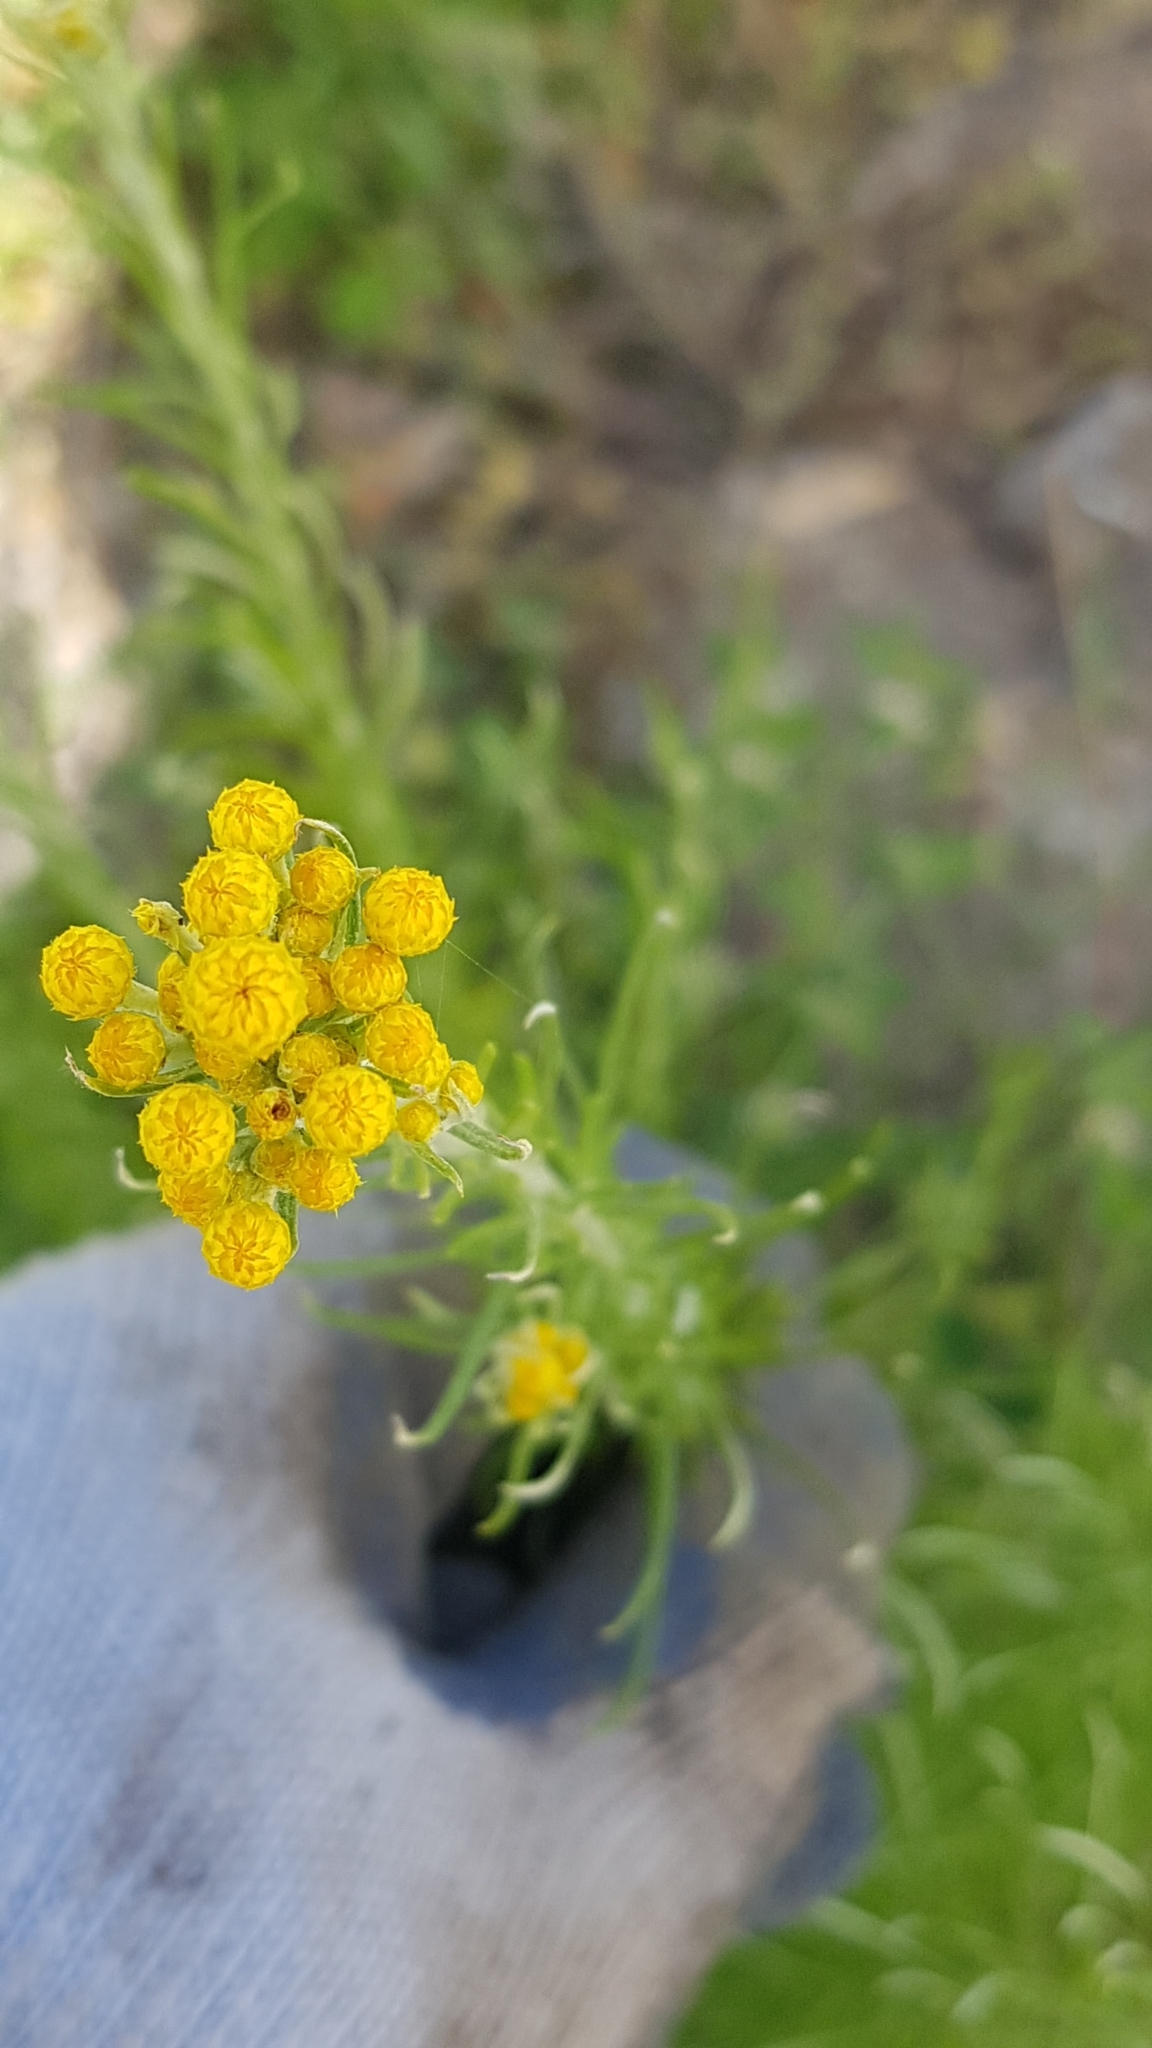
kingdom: Plantae
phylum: Tracheophyta
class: Magnoliopsida
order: Asterales
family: Asteraceae
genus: Chrysocephalum
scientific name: Chrysocephalum semipapposum
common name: Clustered everlasting
